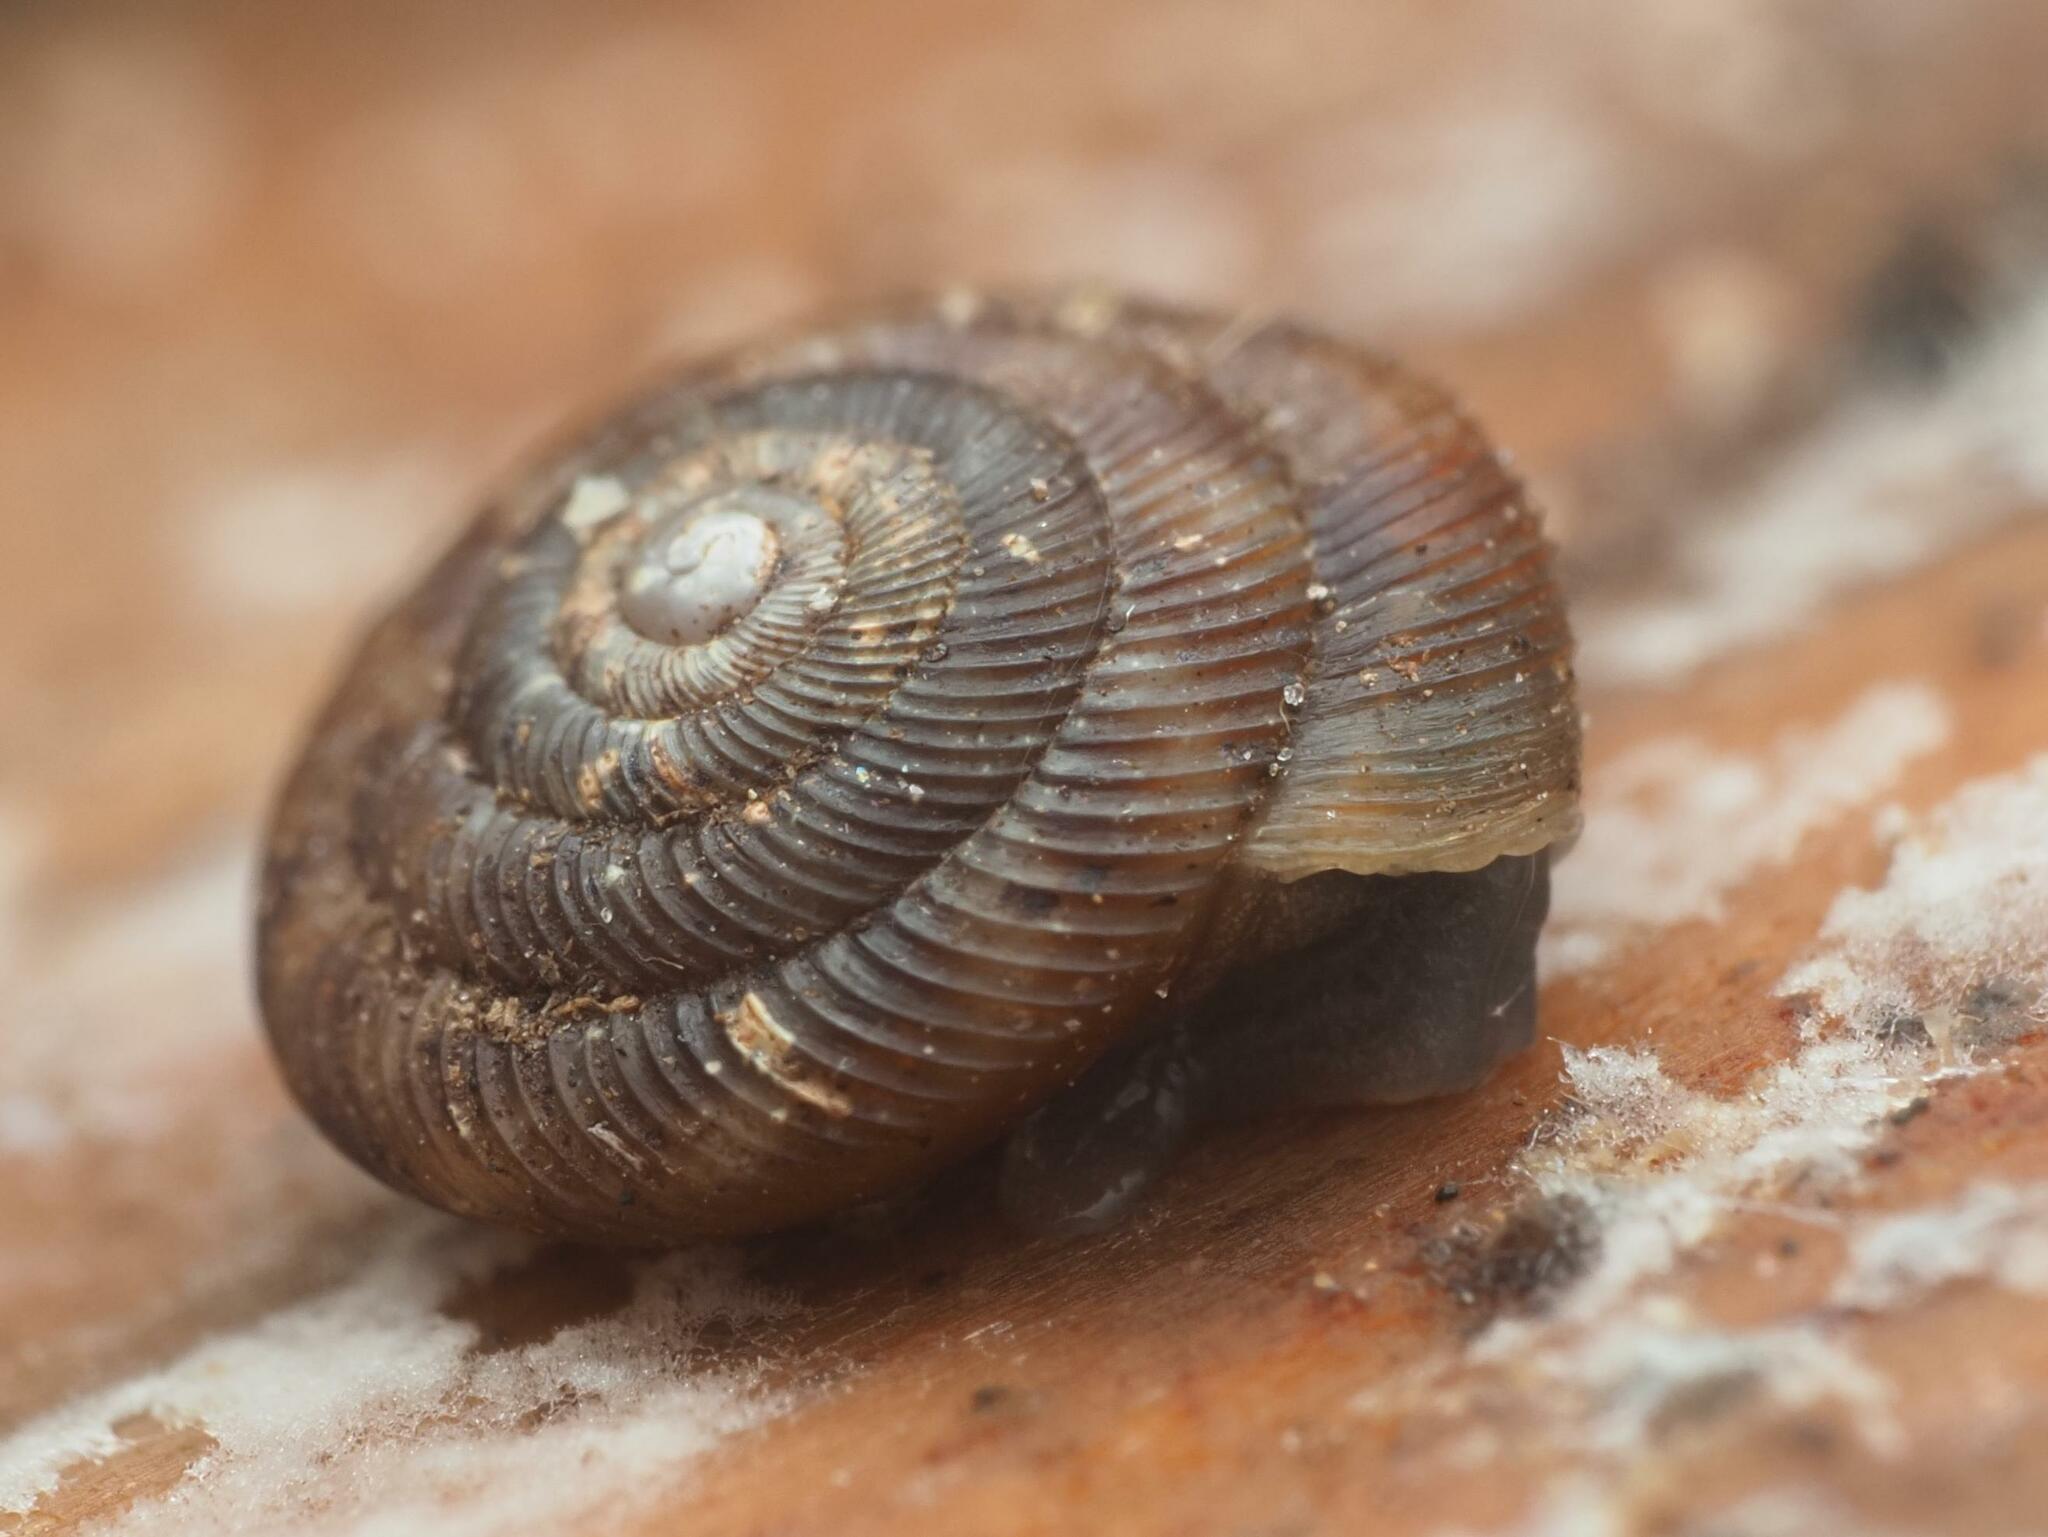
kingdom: Animalia
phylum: Mollusca
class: Gastropoda
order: Stylommatophora
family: Discidae
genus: Discus
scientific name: Discus rotundatus
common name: Rounded snail
